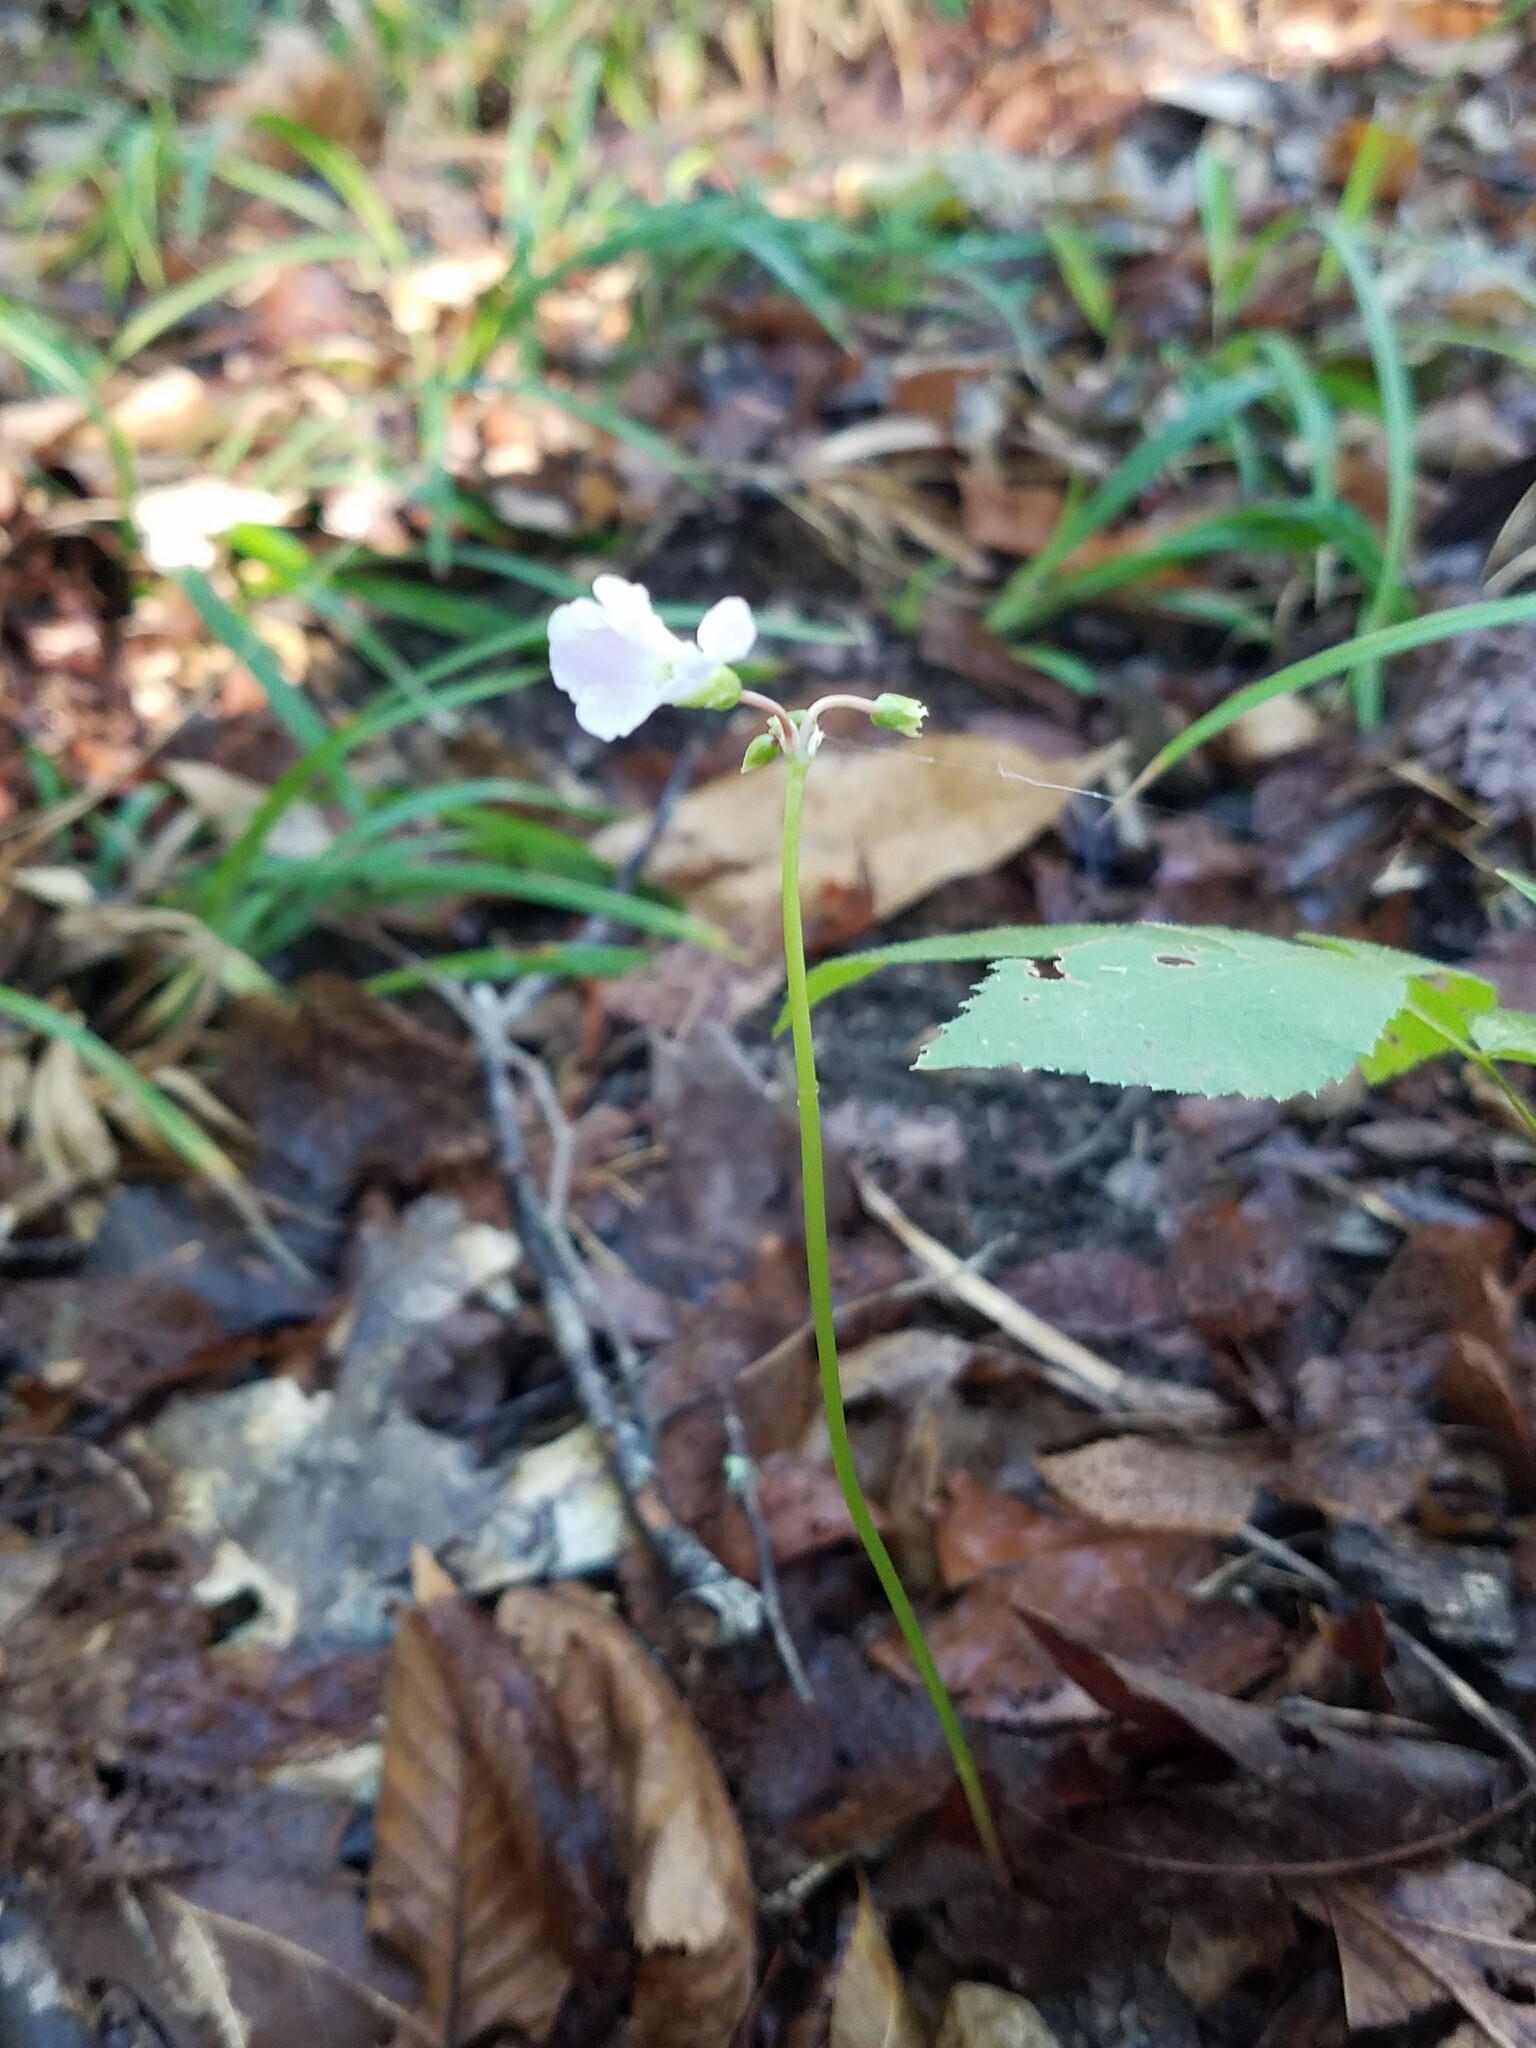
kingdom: Plantae
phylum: Tracheophyta
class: Magnoliopsida
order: Oxalidales
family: Oxalidaceae
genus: Oxalis
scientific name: Oxalis violacea
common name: Violet wood-sorrel
